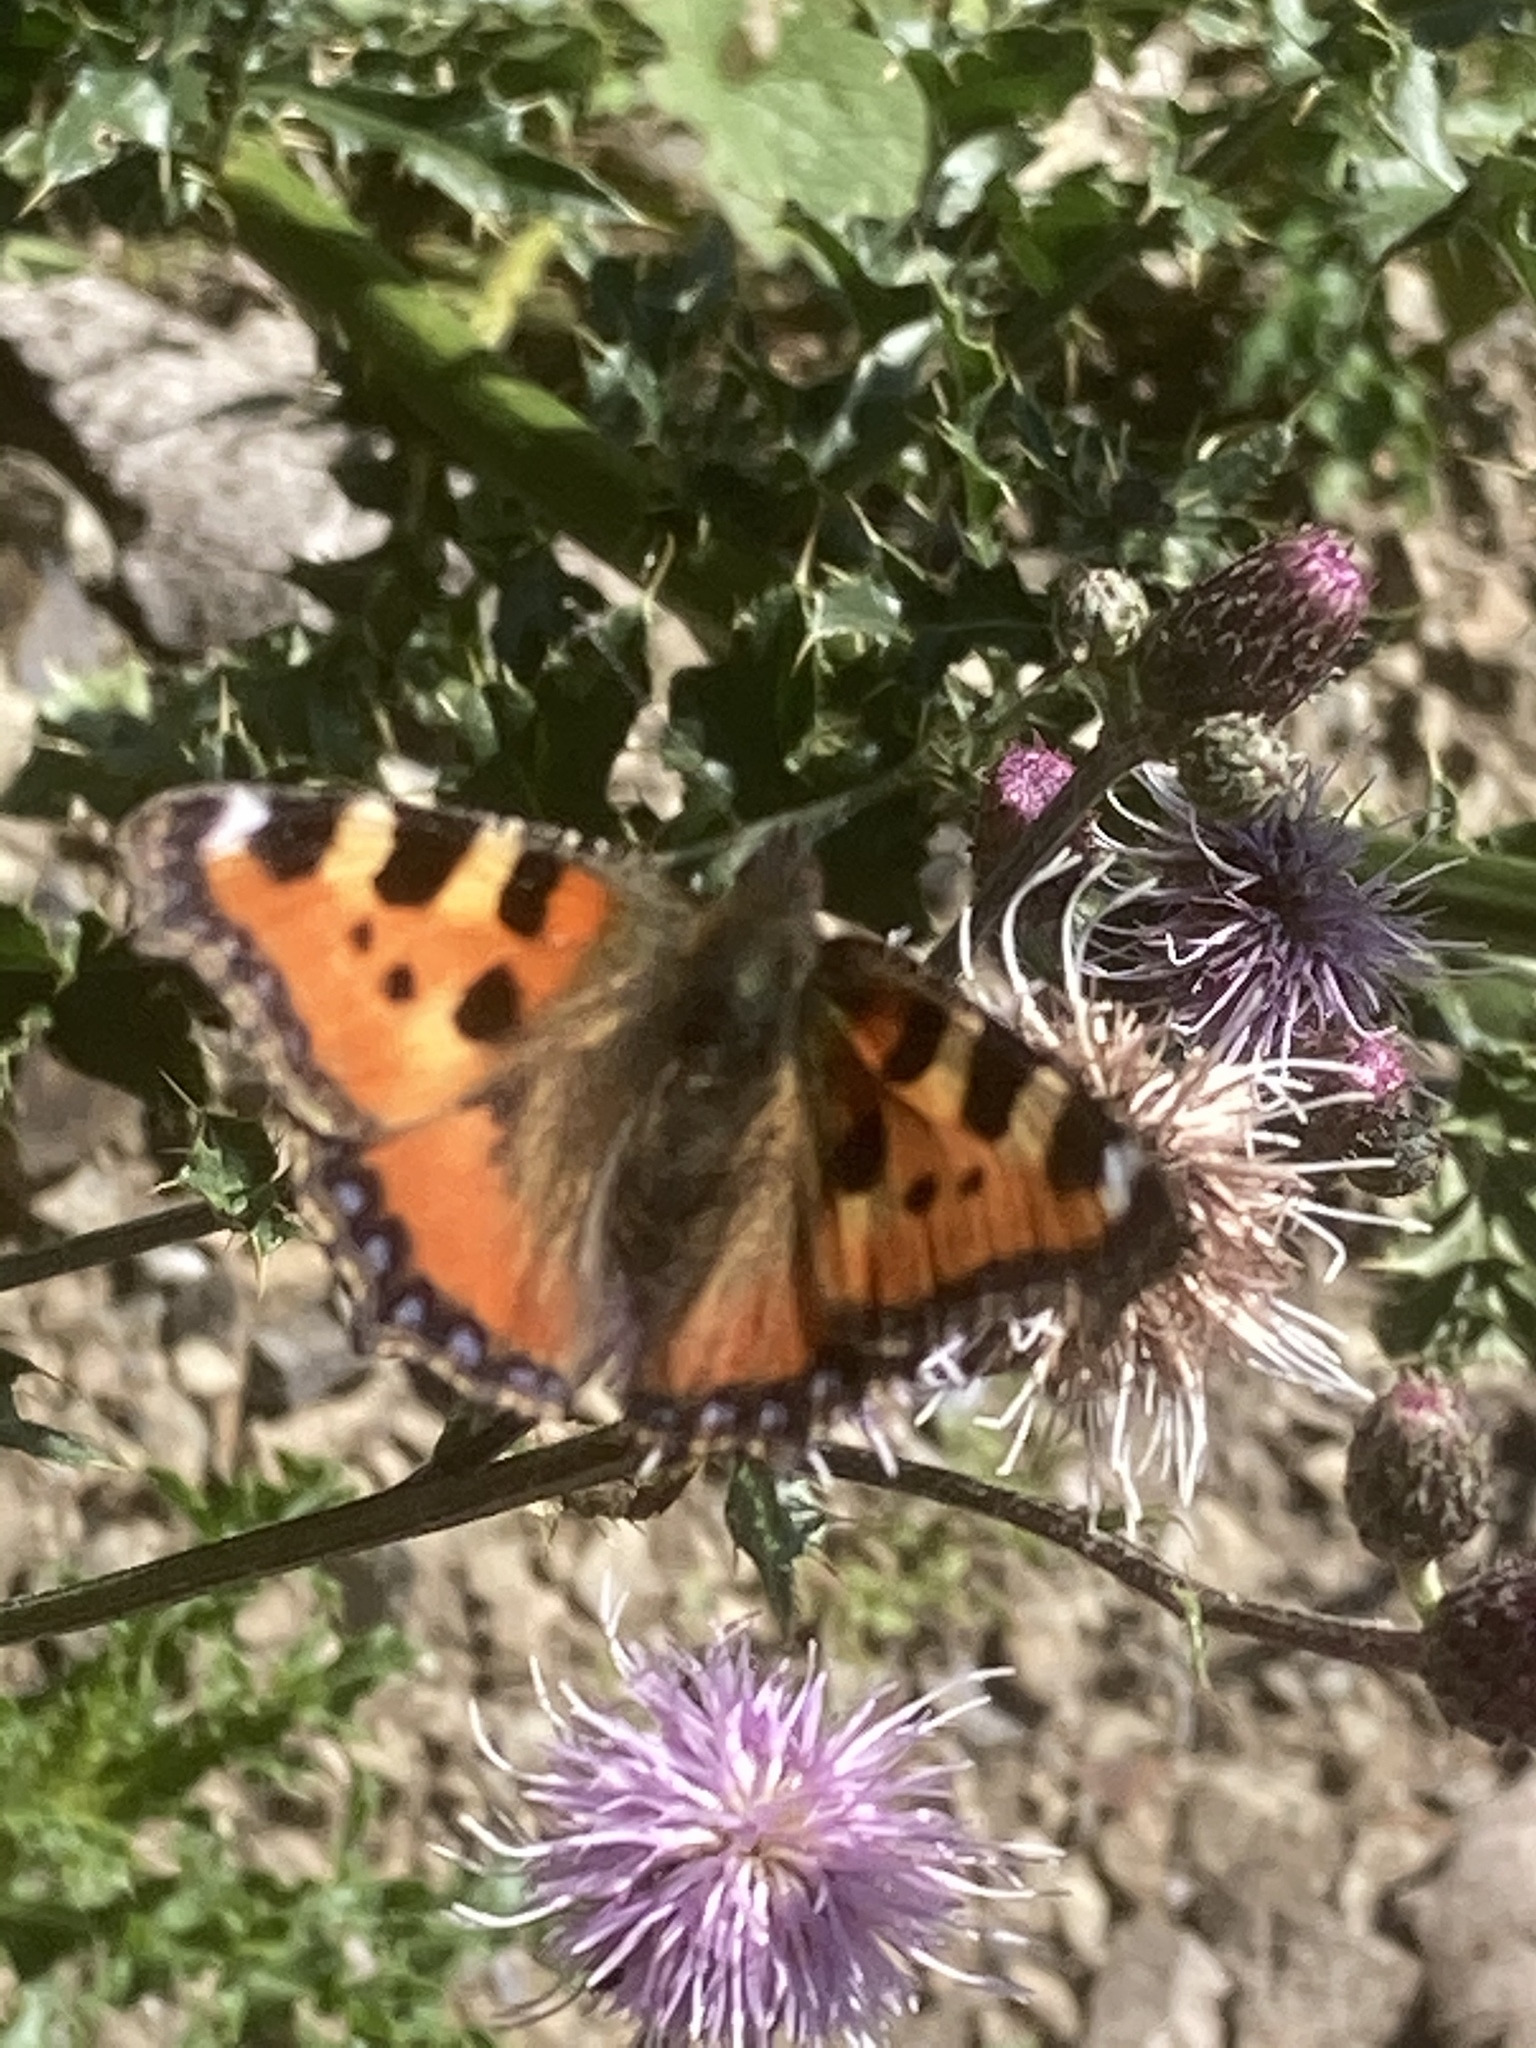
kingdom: Animalia
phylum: Arthropoda
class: Insecta
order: Lepidoptera
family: Nymphalidae
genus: Aglais
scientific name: Aglais urticae
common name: Small tortoiseshell
